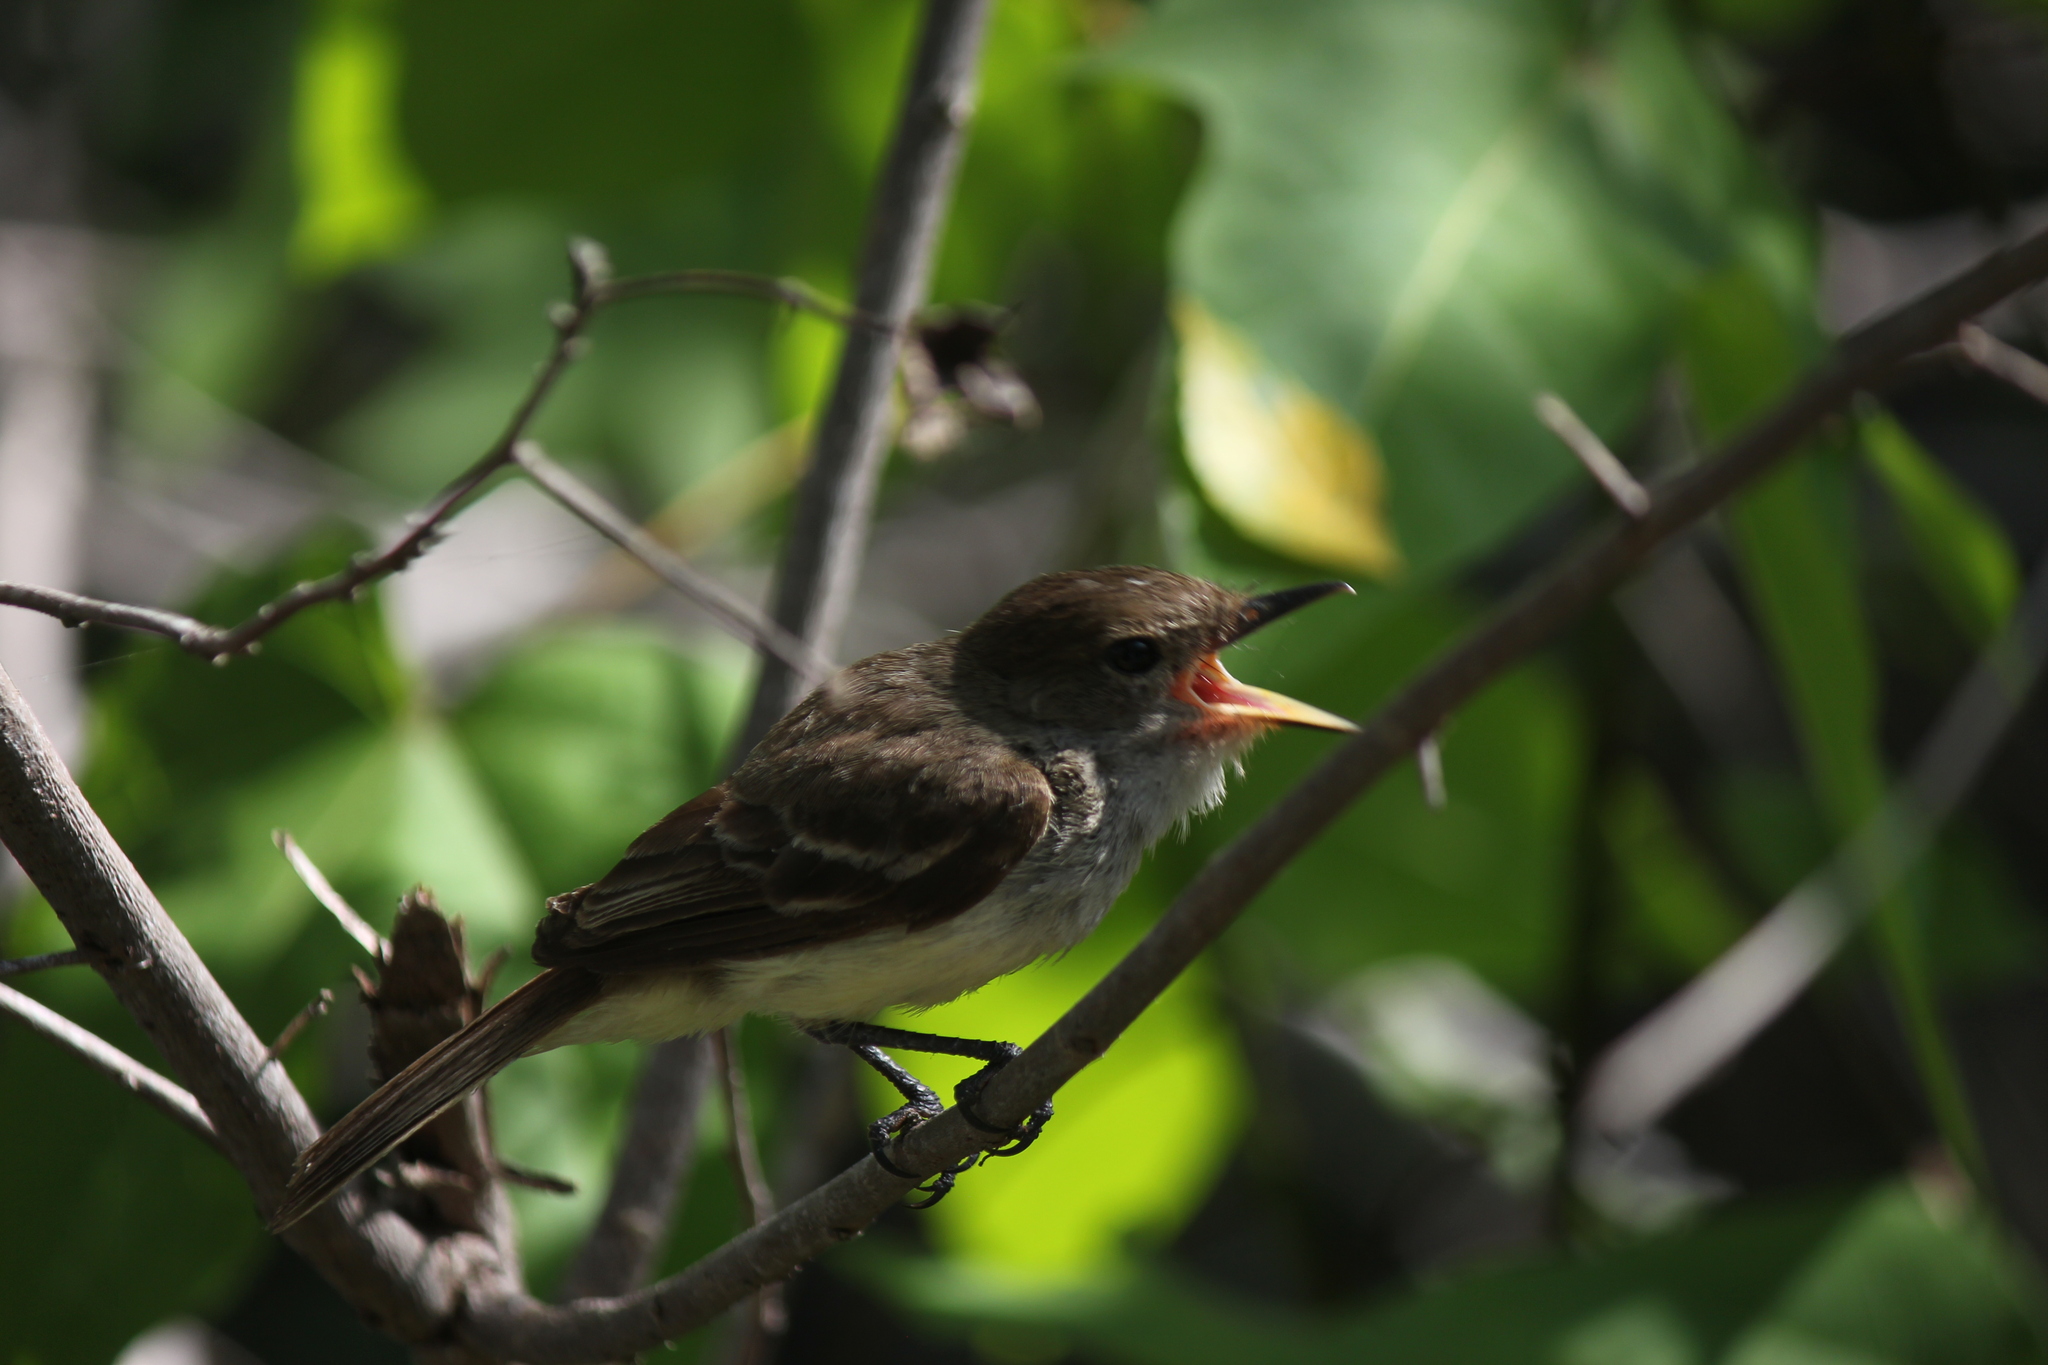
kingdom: Animalia
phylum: Chordata
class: Aves
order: Passeriformes
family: Tyrannidae
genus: Myiarchus
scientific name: Myiarchus magnirostris
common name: Galapagos flycatcher
